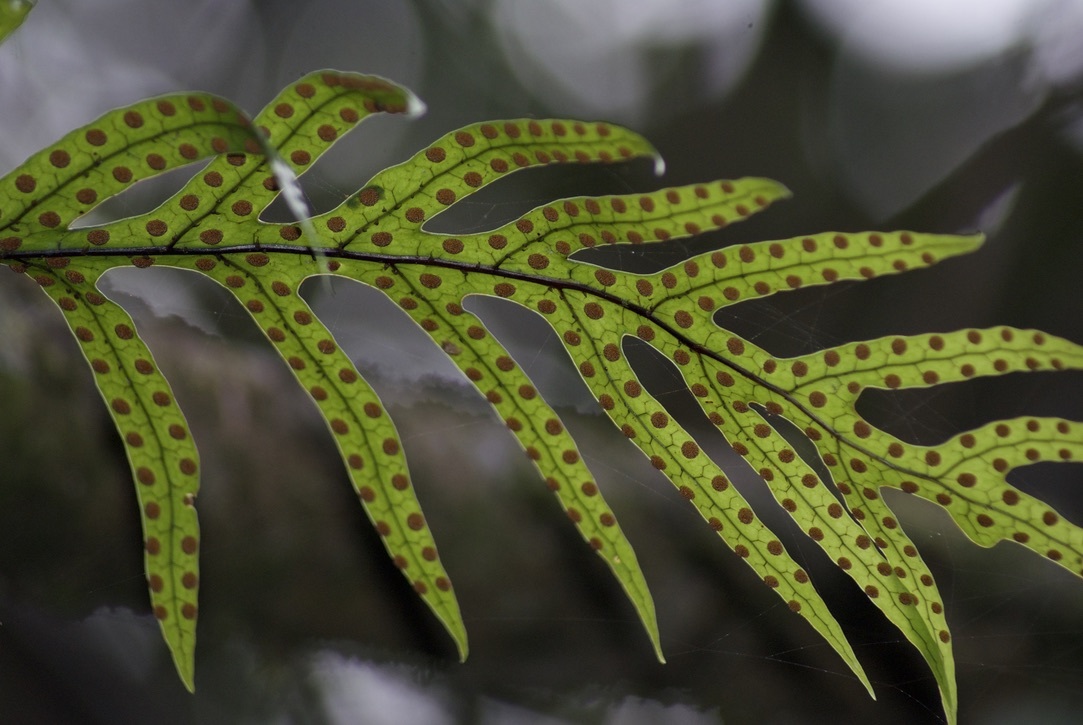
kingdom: Plantae
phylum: Tracheophyta
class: Polypodiopsida
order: Polypodiales
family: Polypodiaceae
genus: Lecanopteris
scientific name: Lecanopteris pustulata
